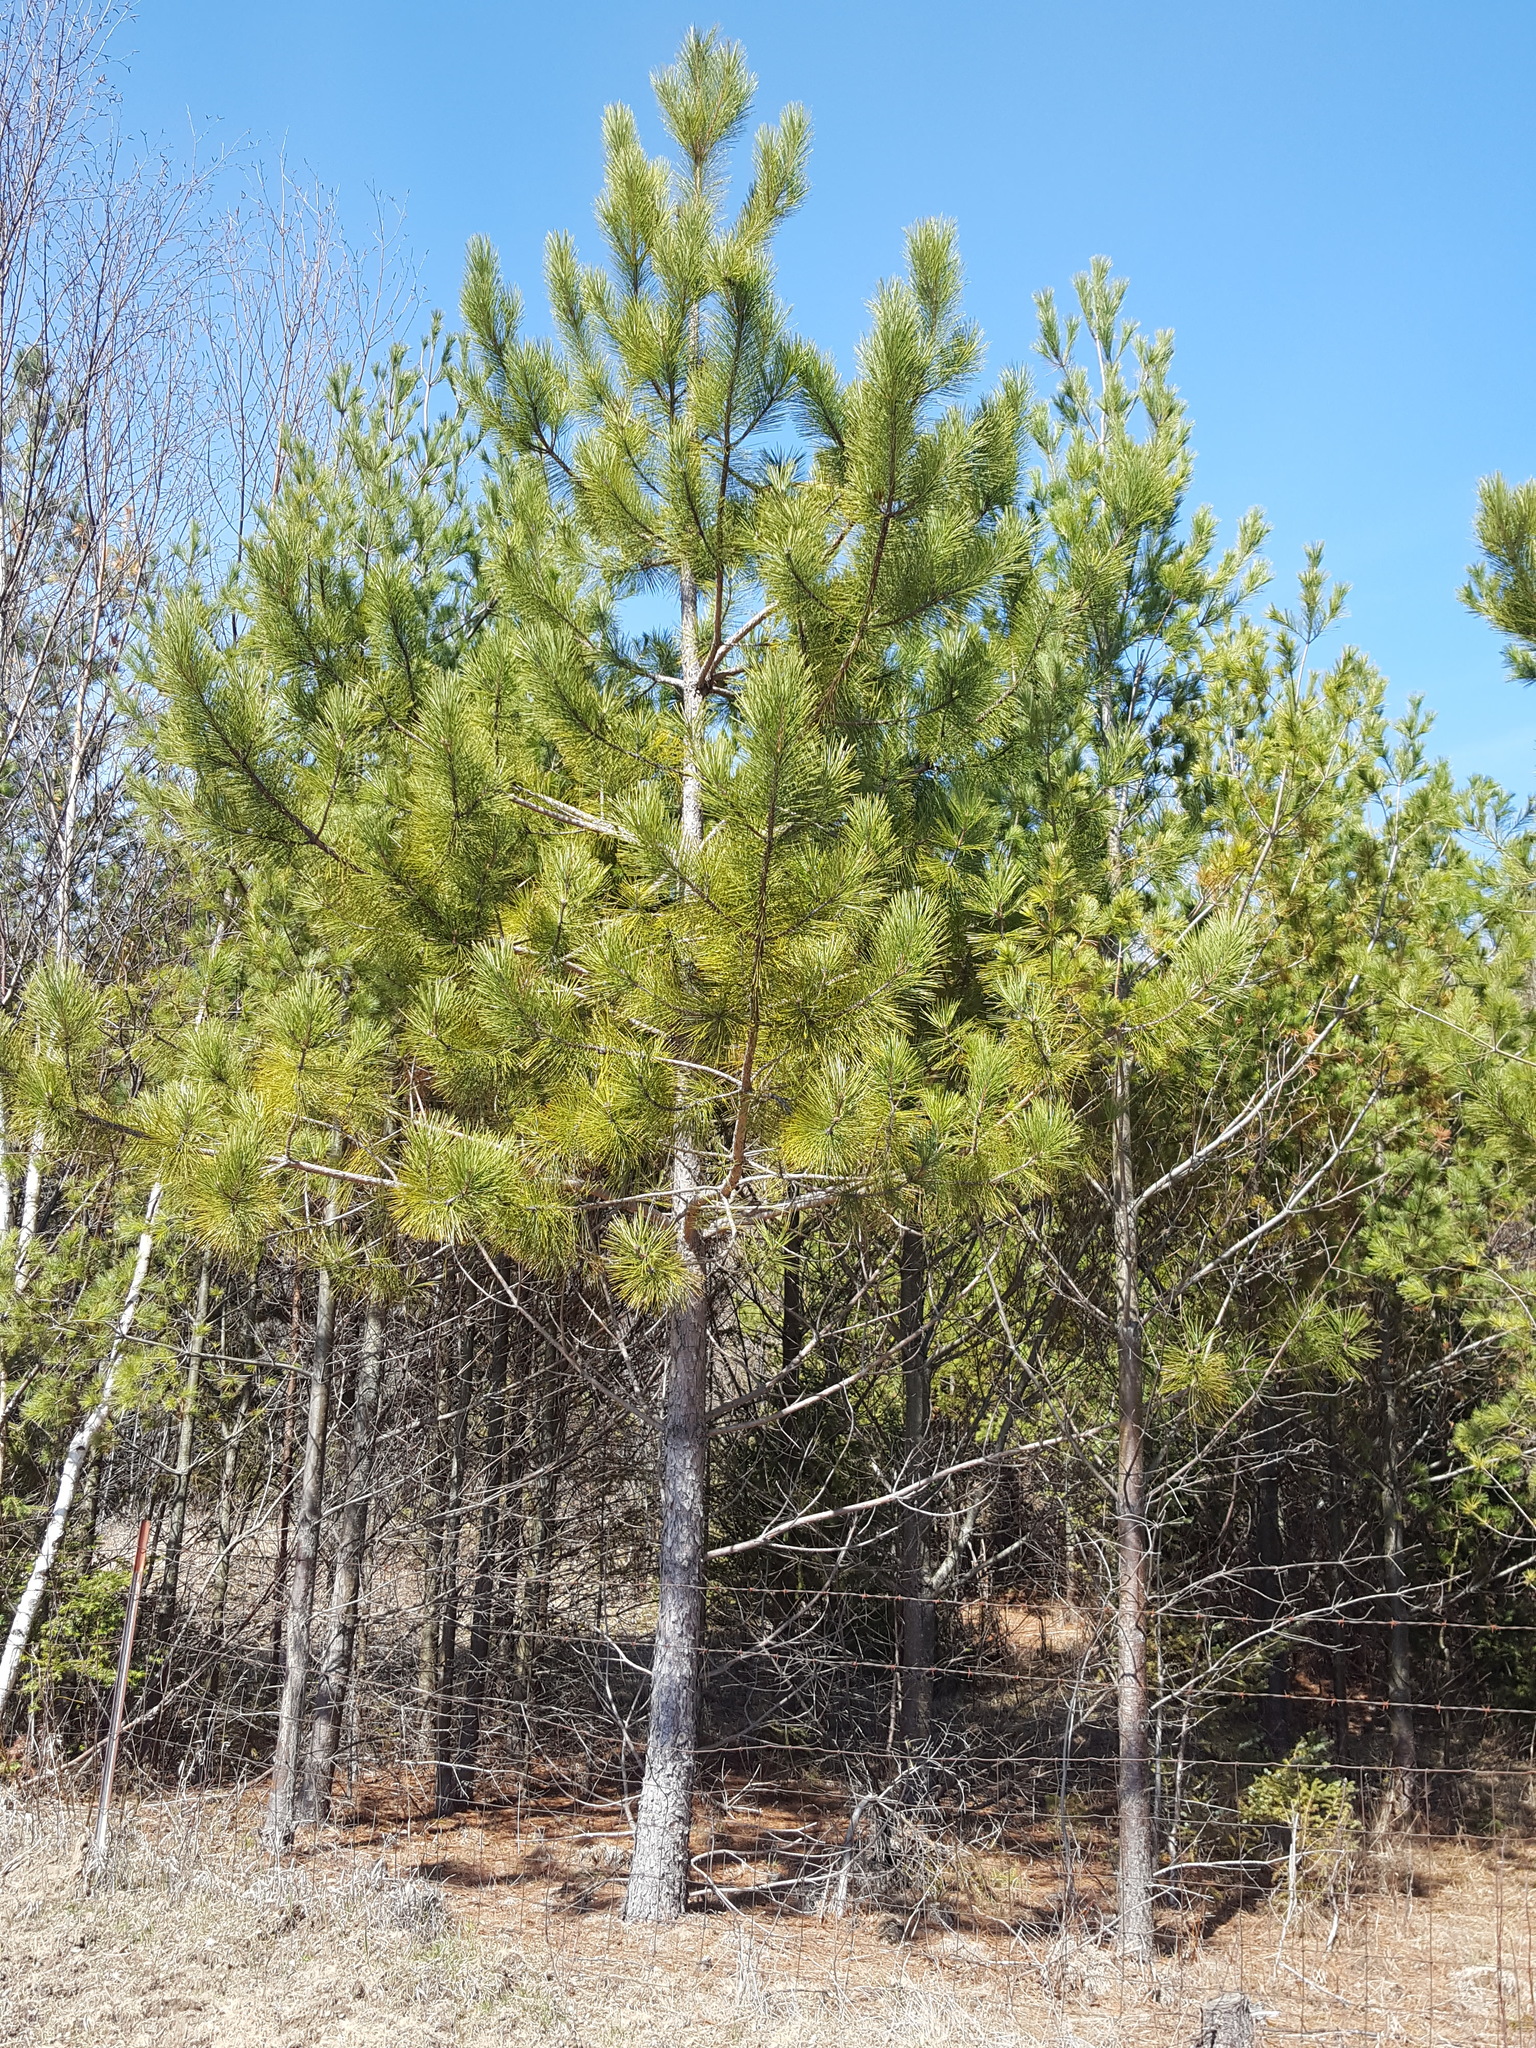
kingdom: Plantae
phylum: Tracheophyta
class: Pinopsida
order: Pinales
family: Pinaceae
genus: Pinus
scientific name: Pinus resinosa
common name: Norway pine
